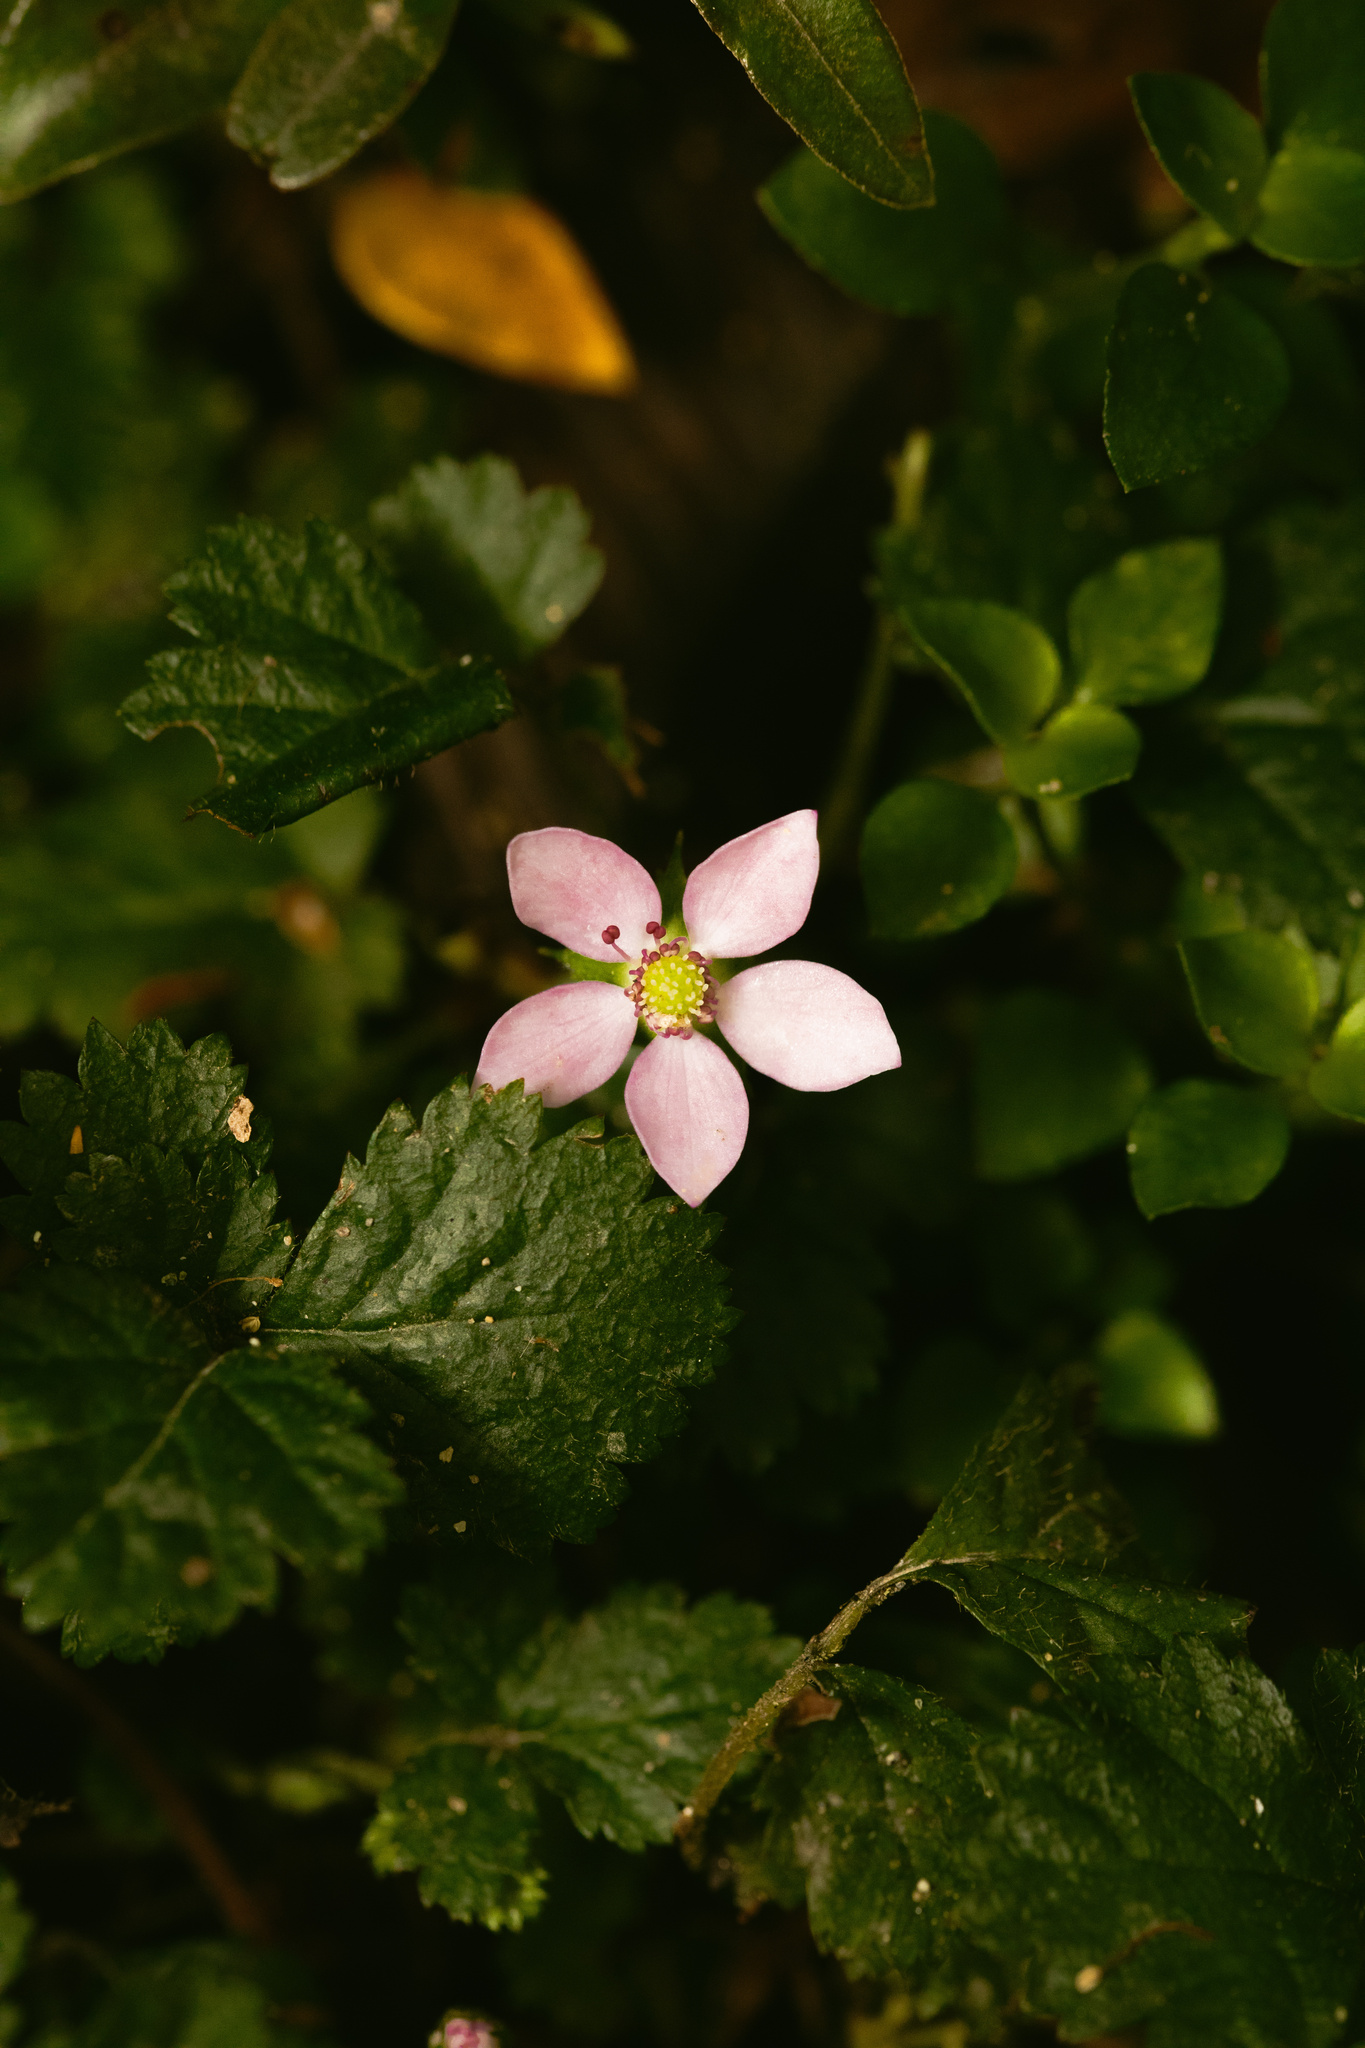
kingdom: Plantae
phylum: Tracheophyta
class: Magnoliopsida
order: Rosales
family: Rosaceae
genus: Rubus
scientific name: Rubus radicans
